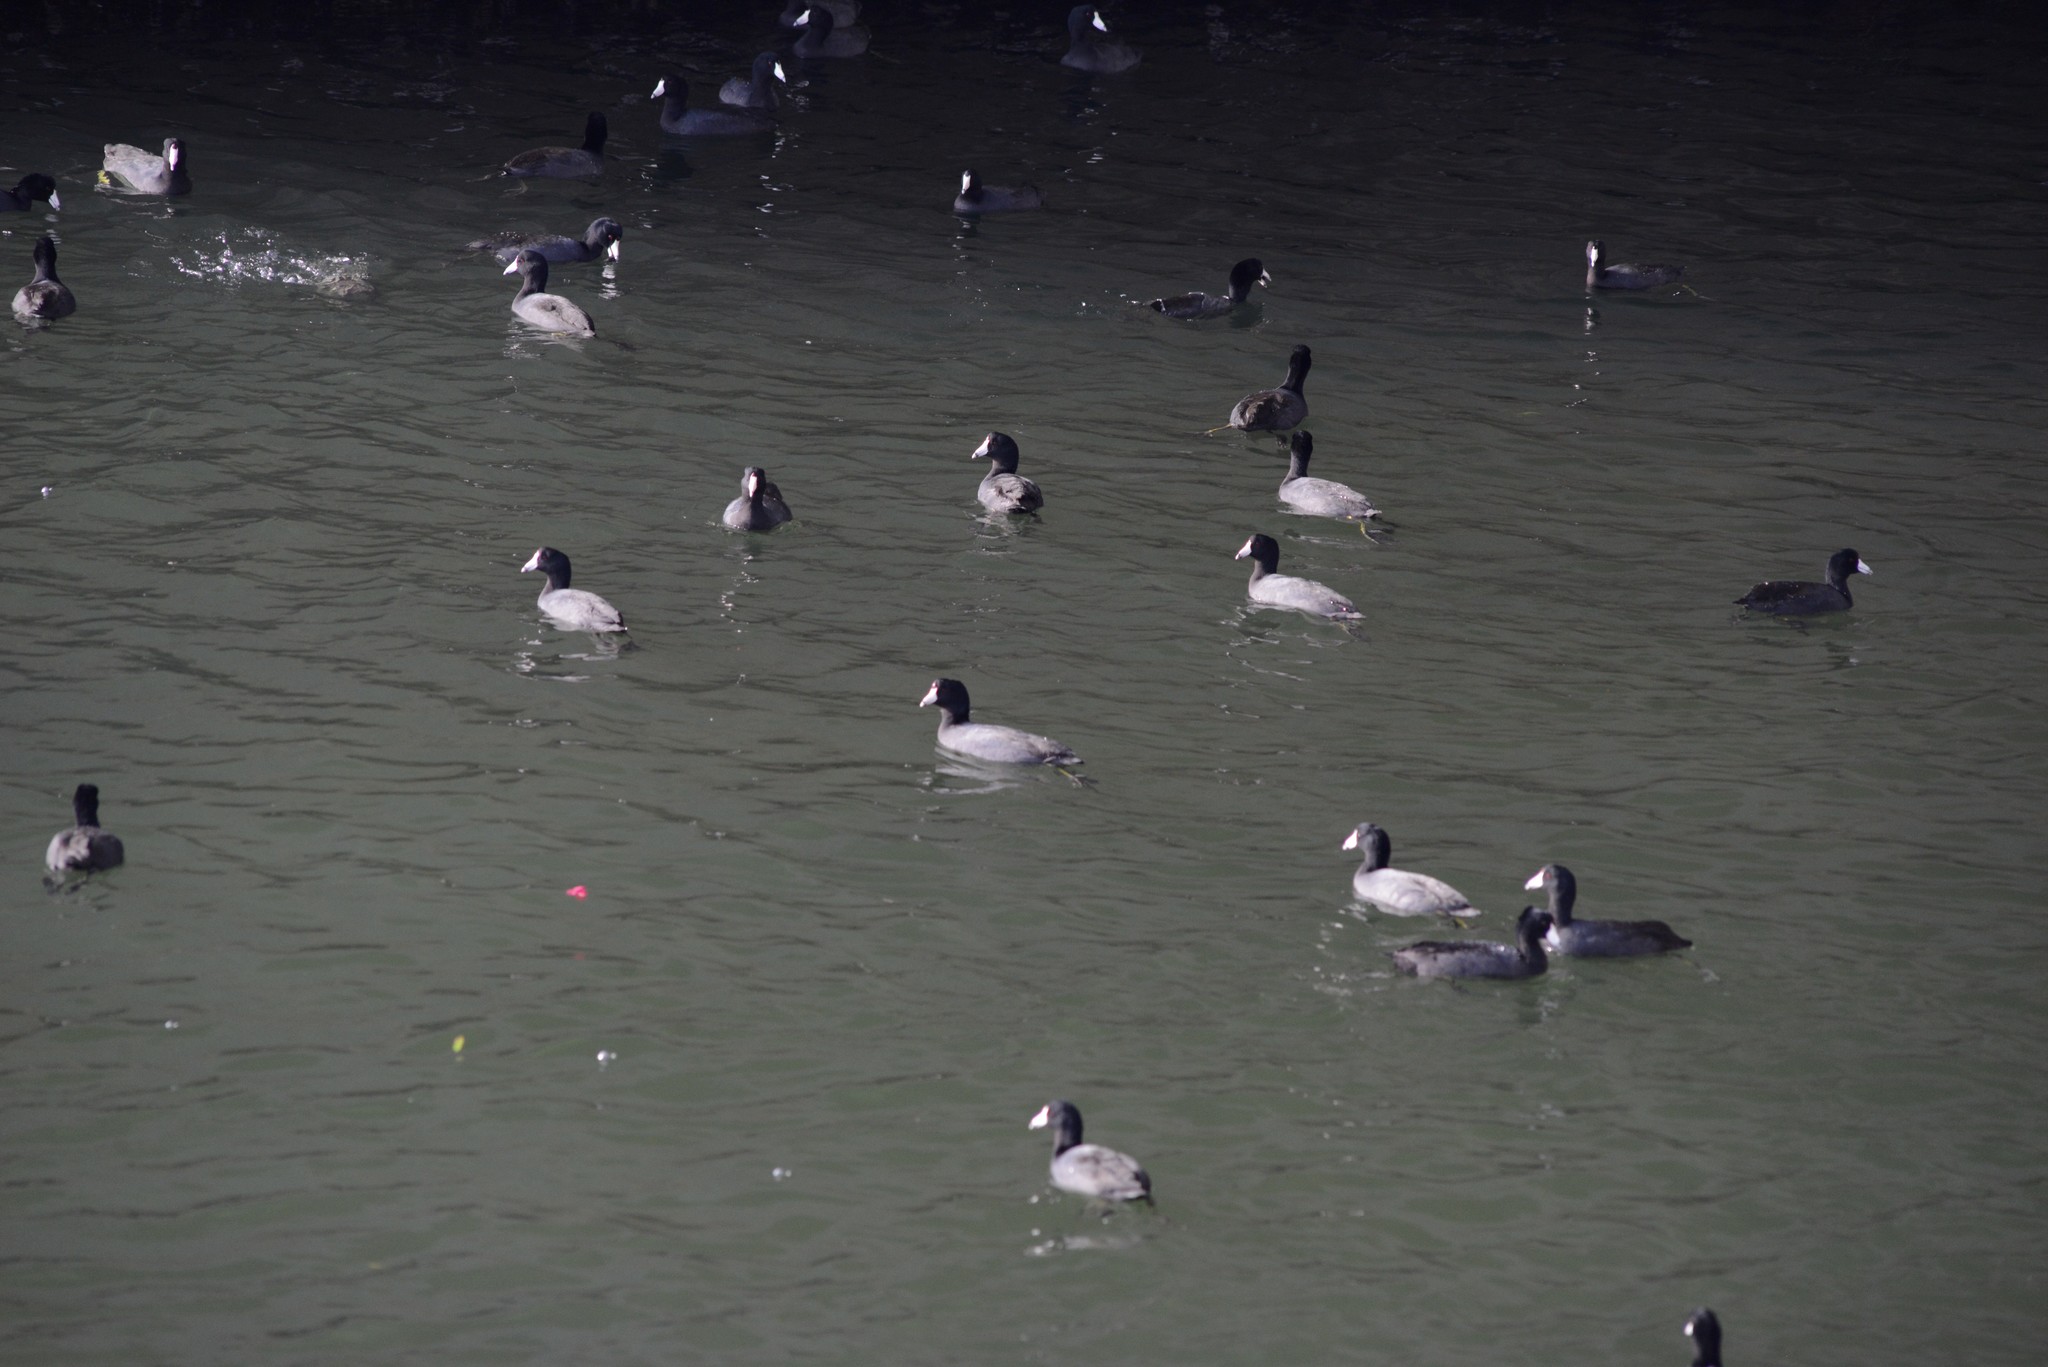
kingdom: Animalia
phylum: Chordata
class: Aves
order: Gruiformes
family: Rallidae
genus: Fulica
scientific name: Fulica americana
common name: American coot
